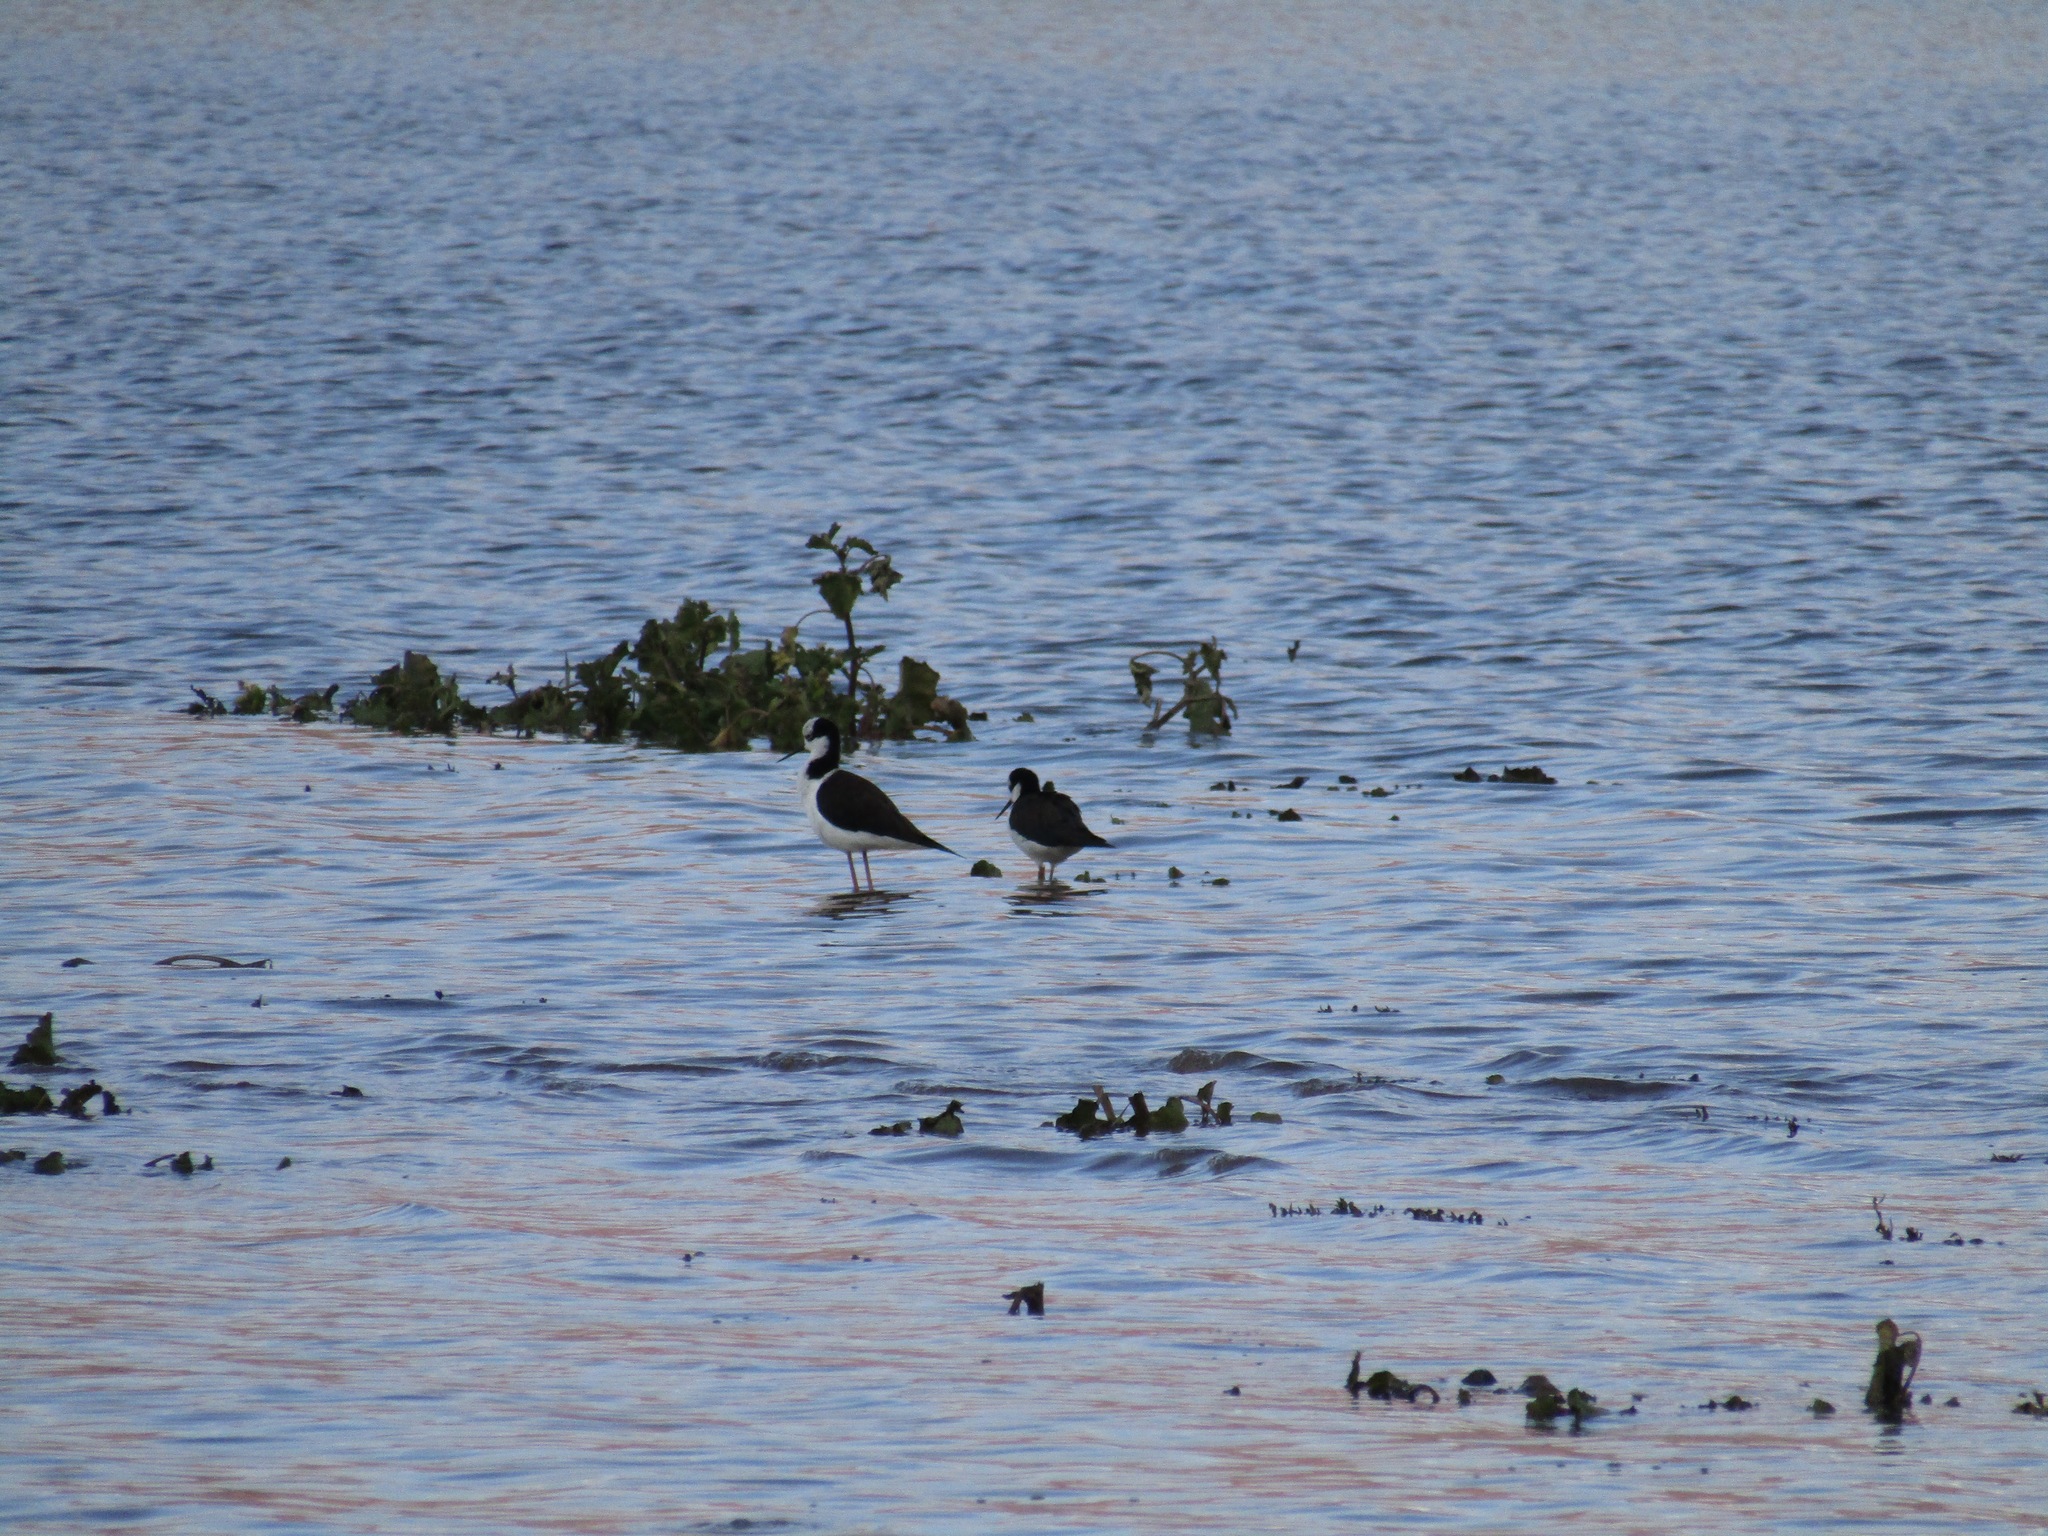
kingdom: Animalia
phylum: Chordata
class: Aves
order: Charadriiformes
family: Recurvirostridae
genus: Himantopus
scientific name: Himantopus mexicanus
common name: Black-necked stilt
